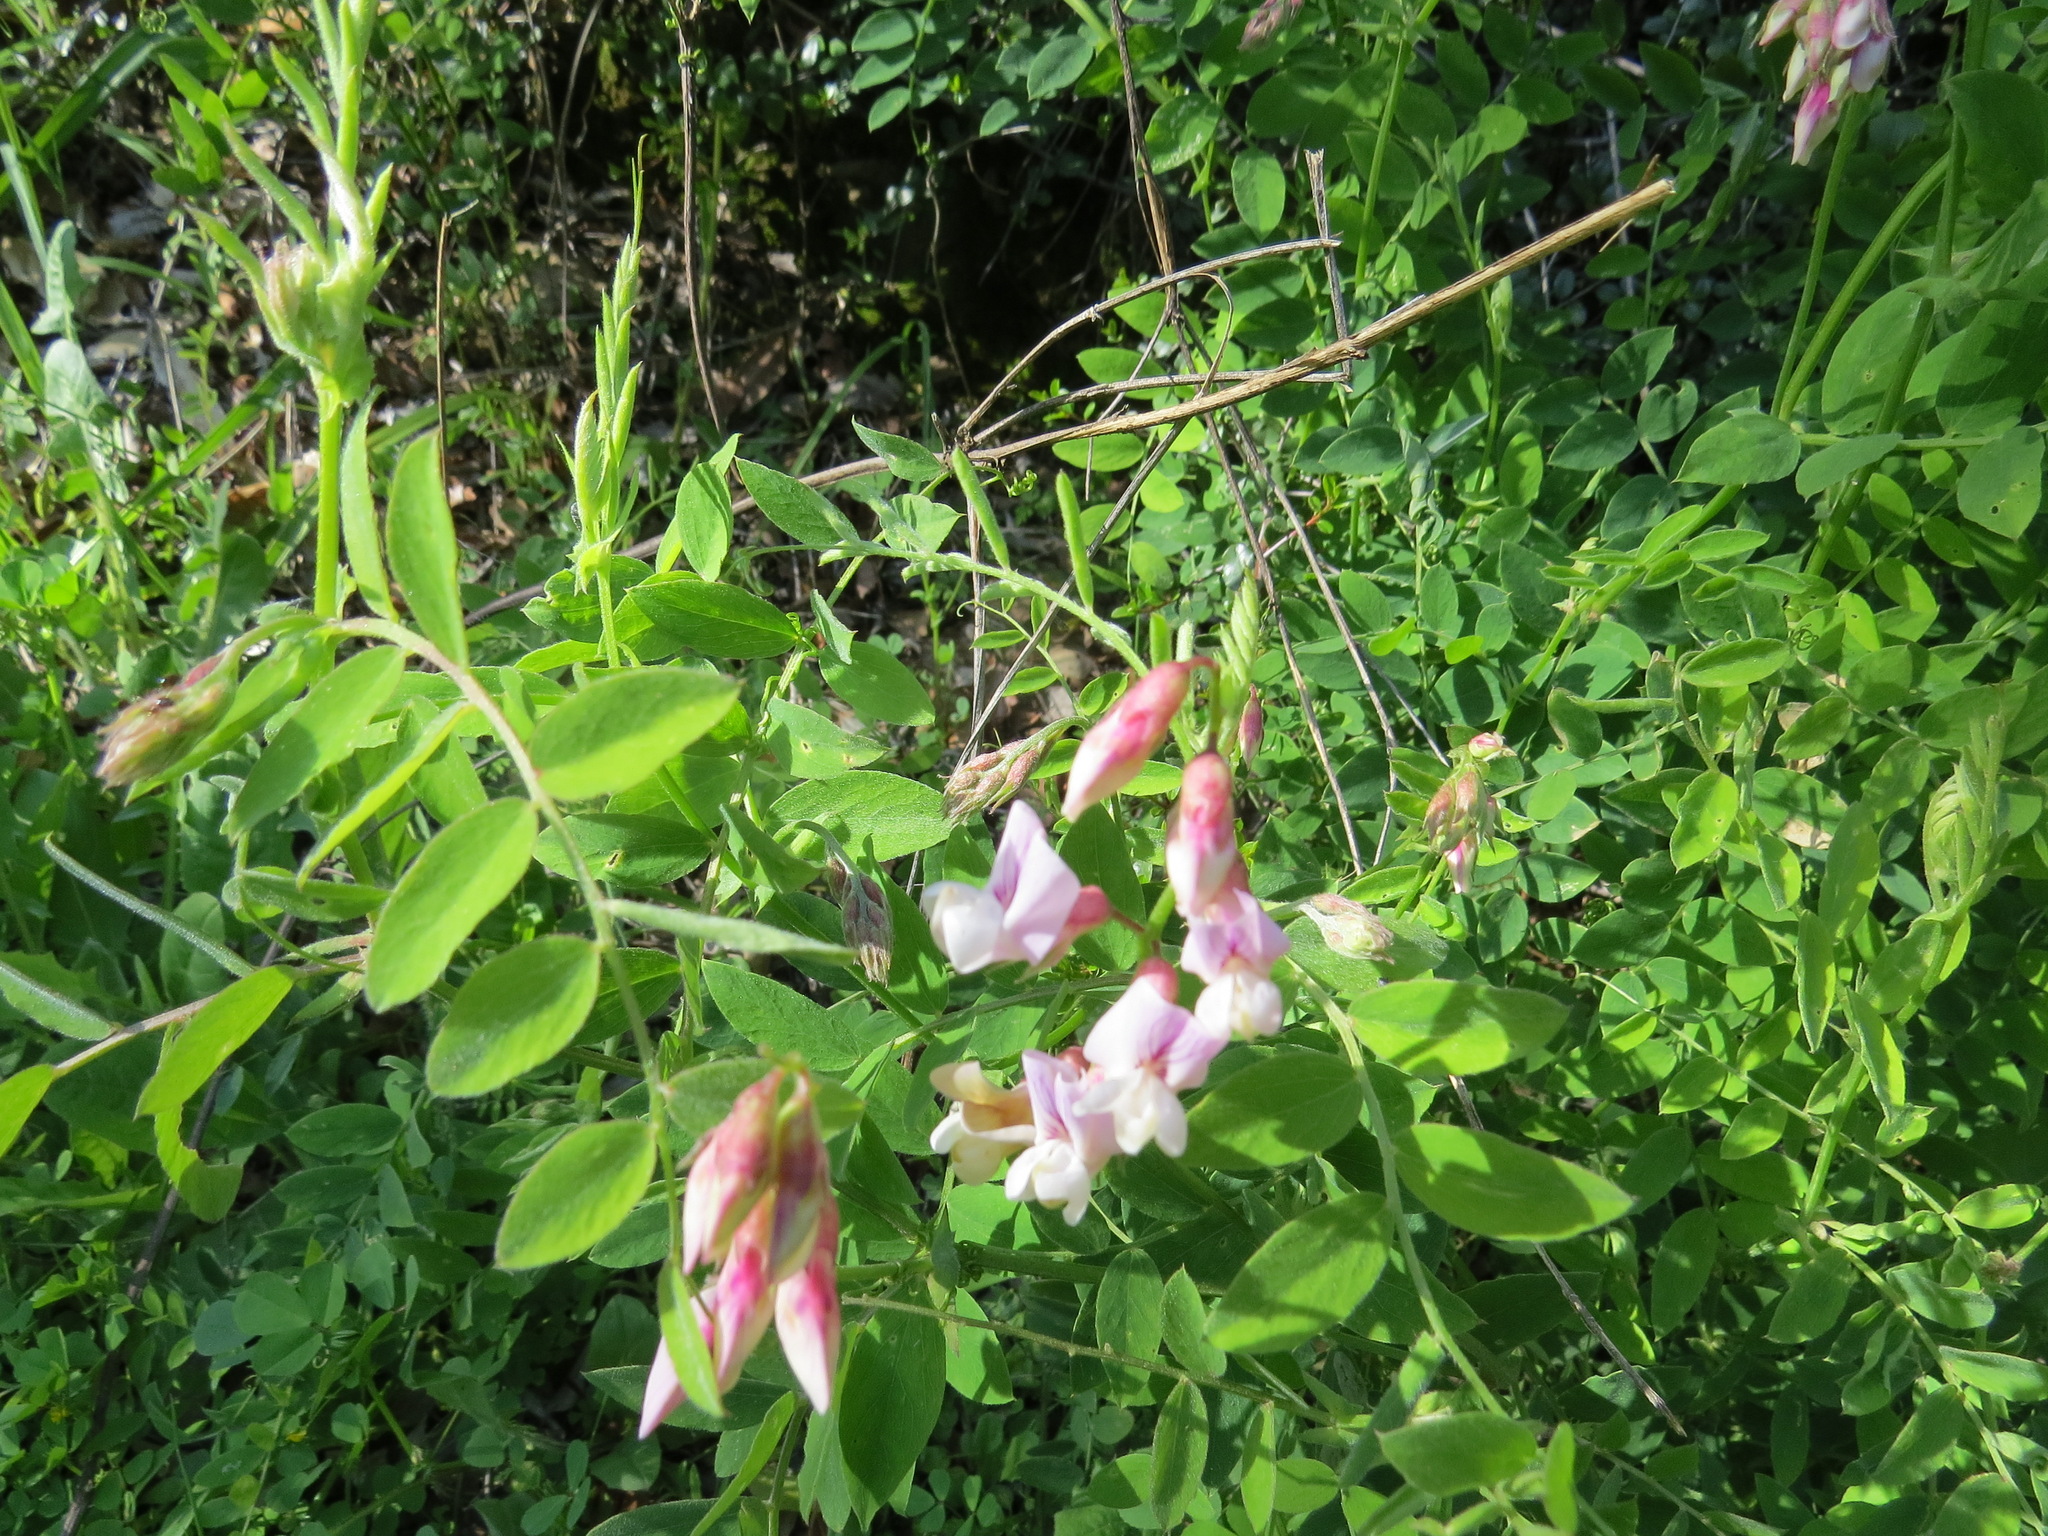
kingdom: Plantae
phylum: Tracheophyta
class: Magnoliopsida
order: Fabales
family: Fabaceae
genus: Lathyrus
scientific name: Lathyrus vestitus
